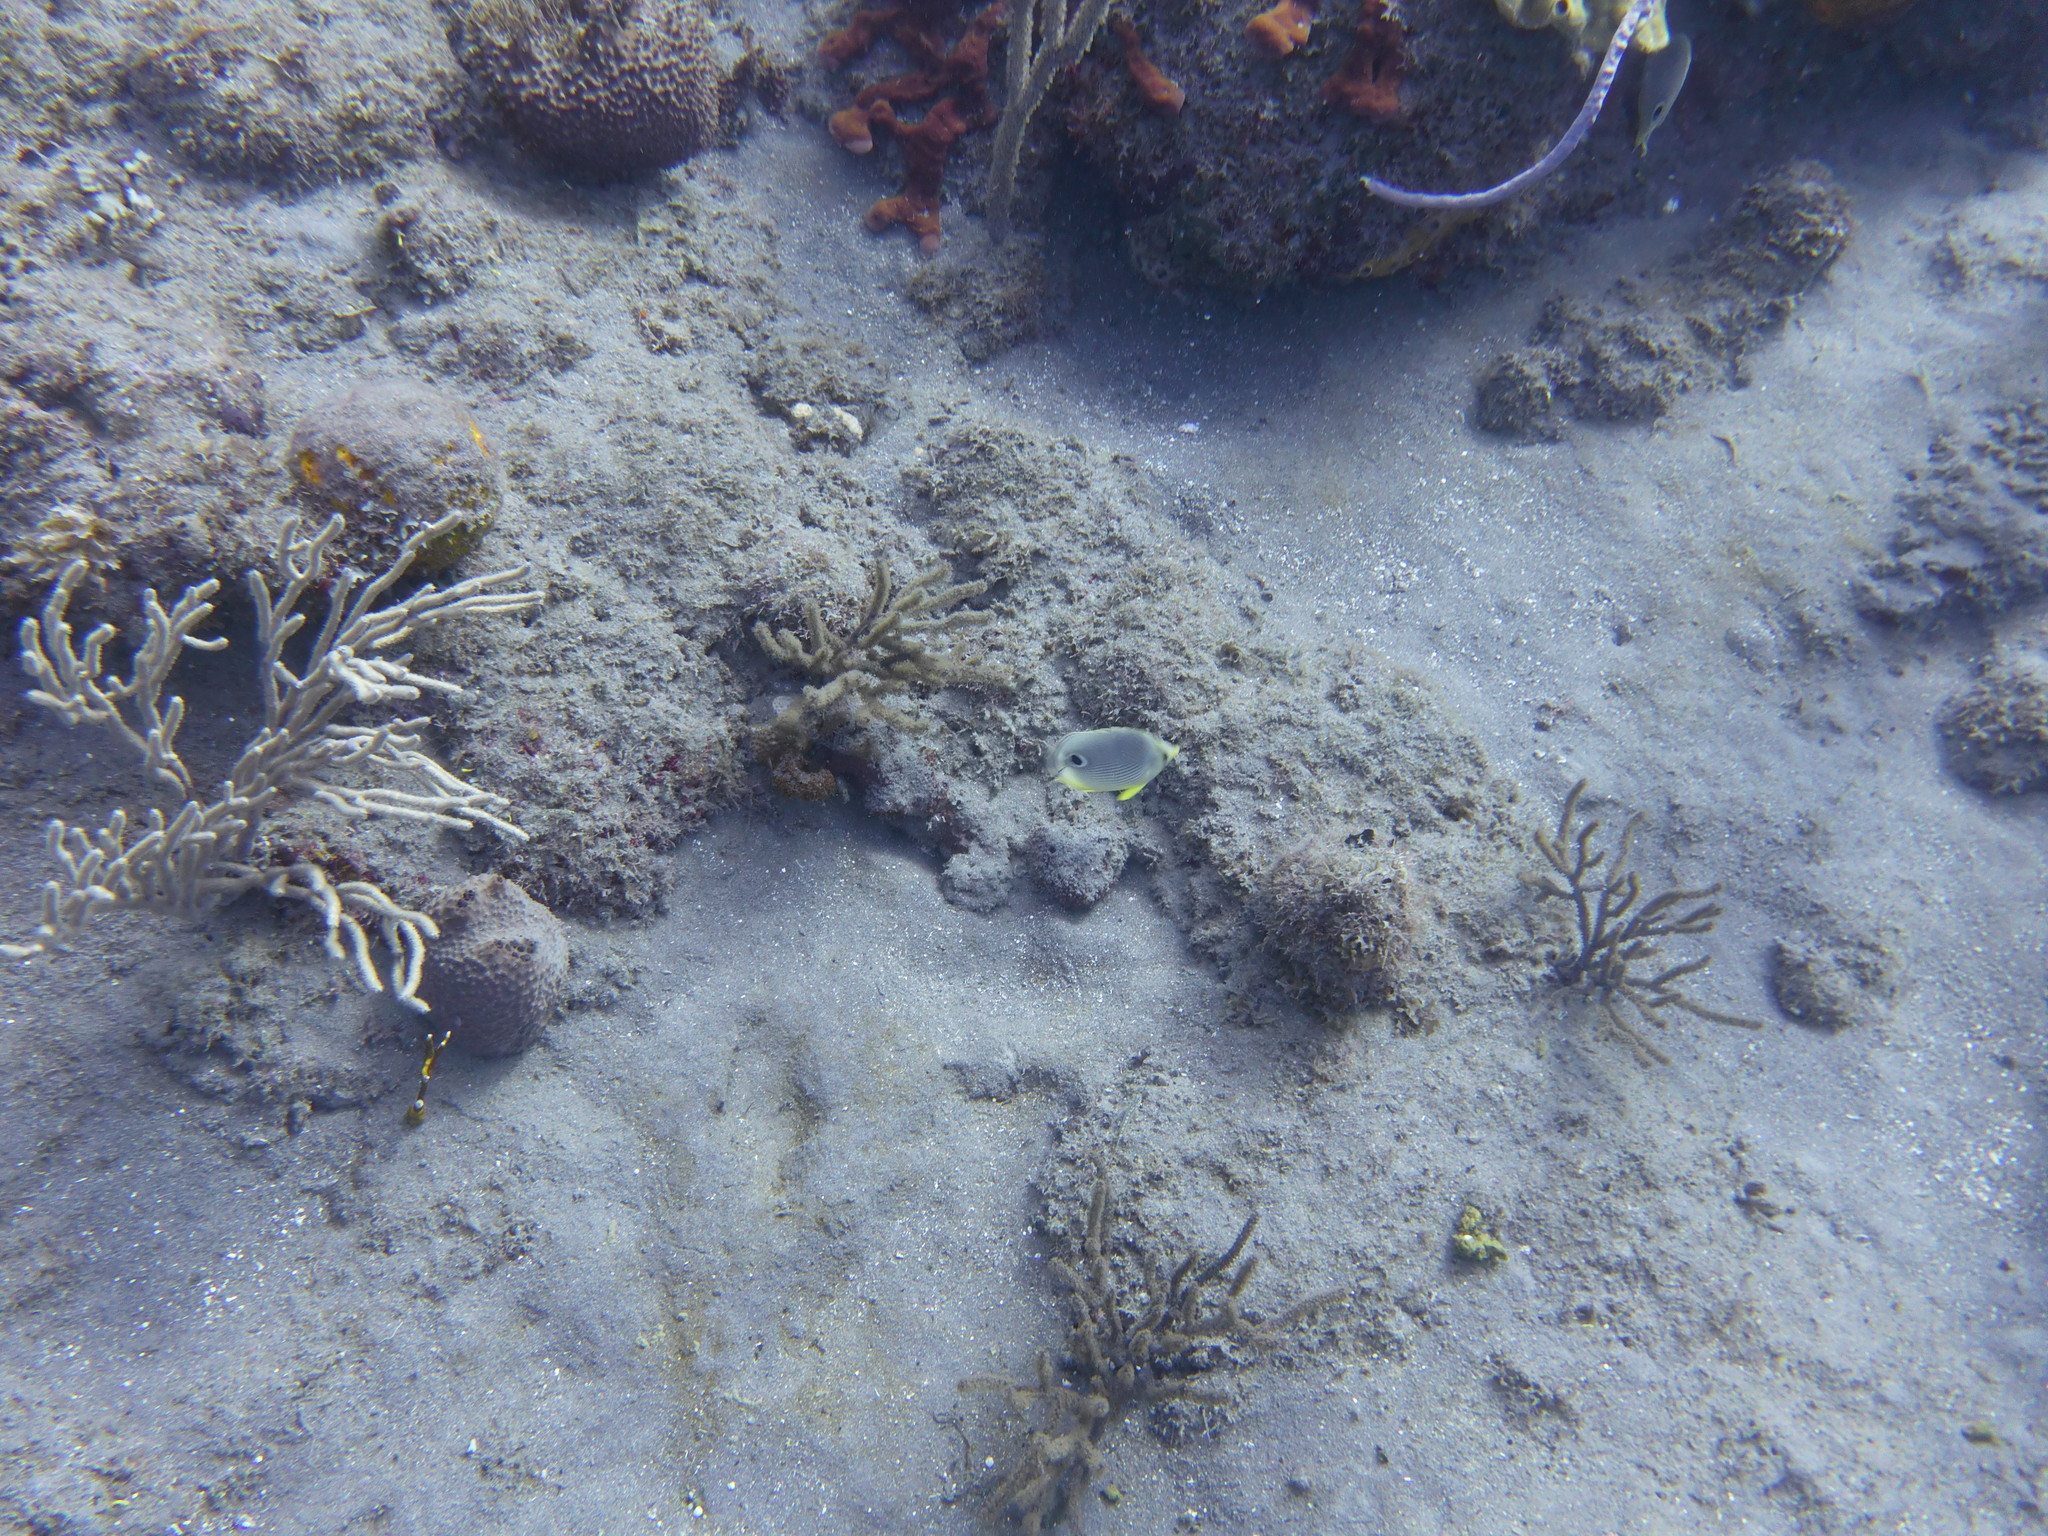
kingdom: Animalia
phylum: Chordata
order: Perciformes
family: Chaetodontidae
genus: Chaetodon
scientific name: Chaetodon capistratus
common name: Kete
